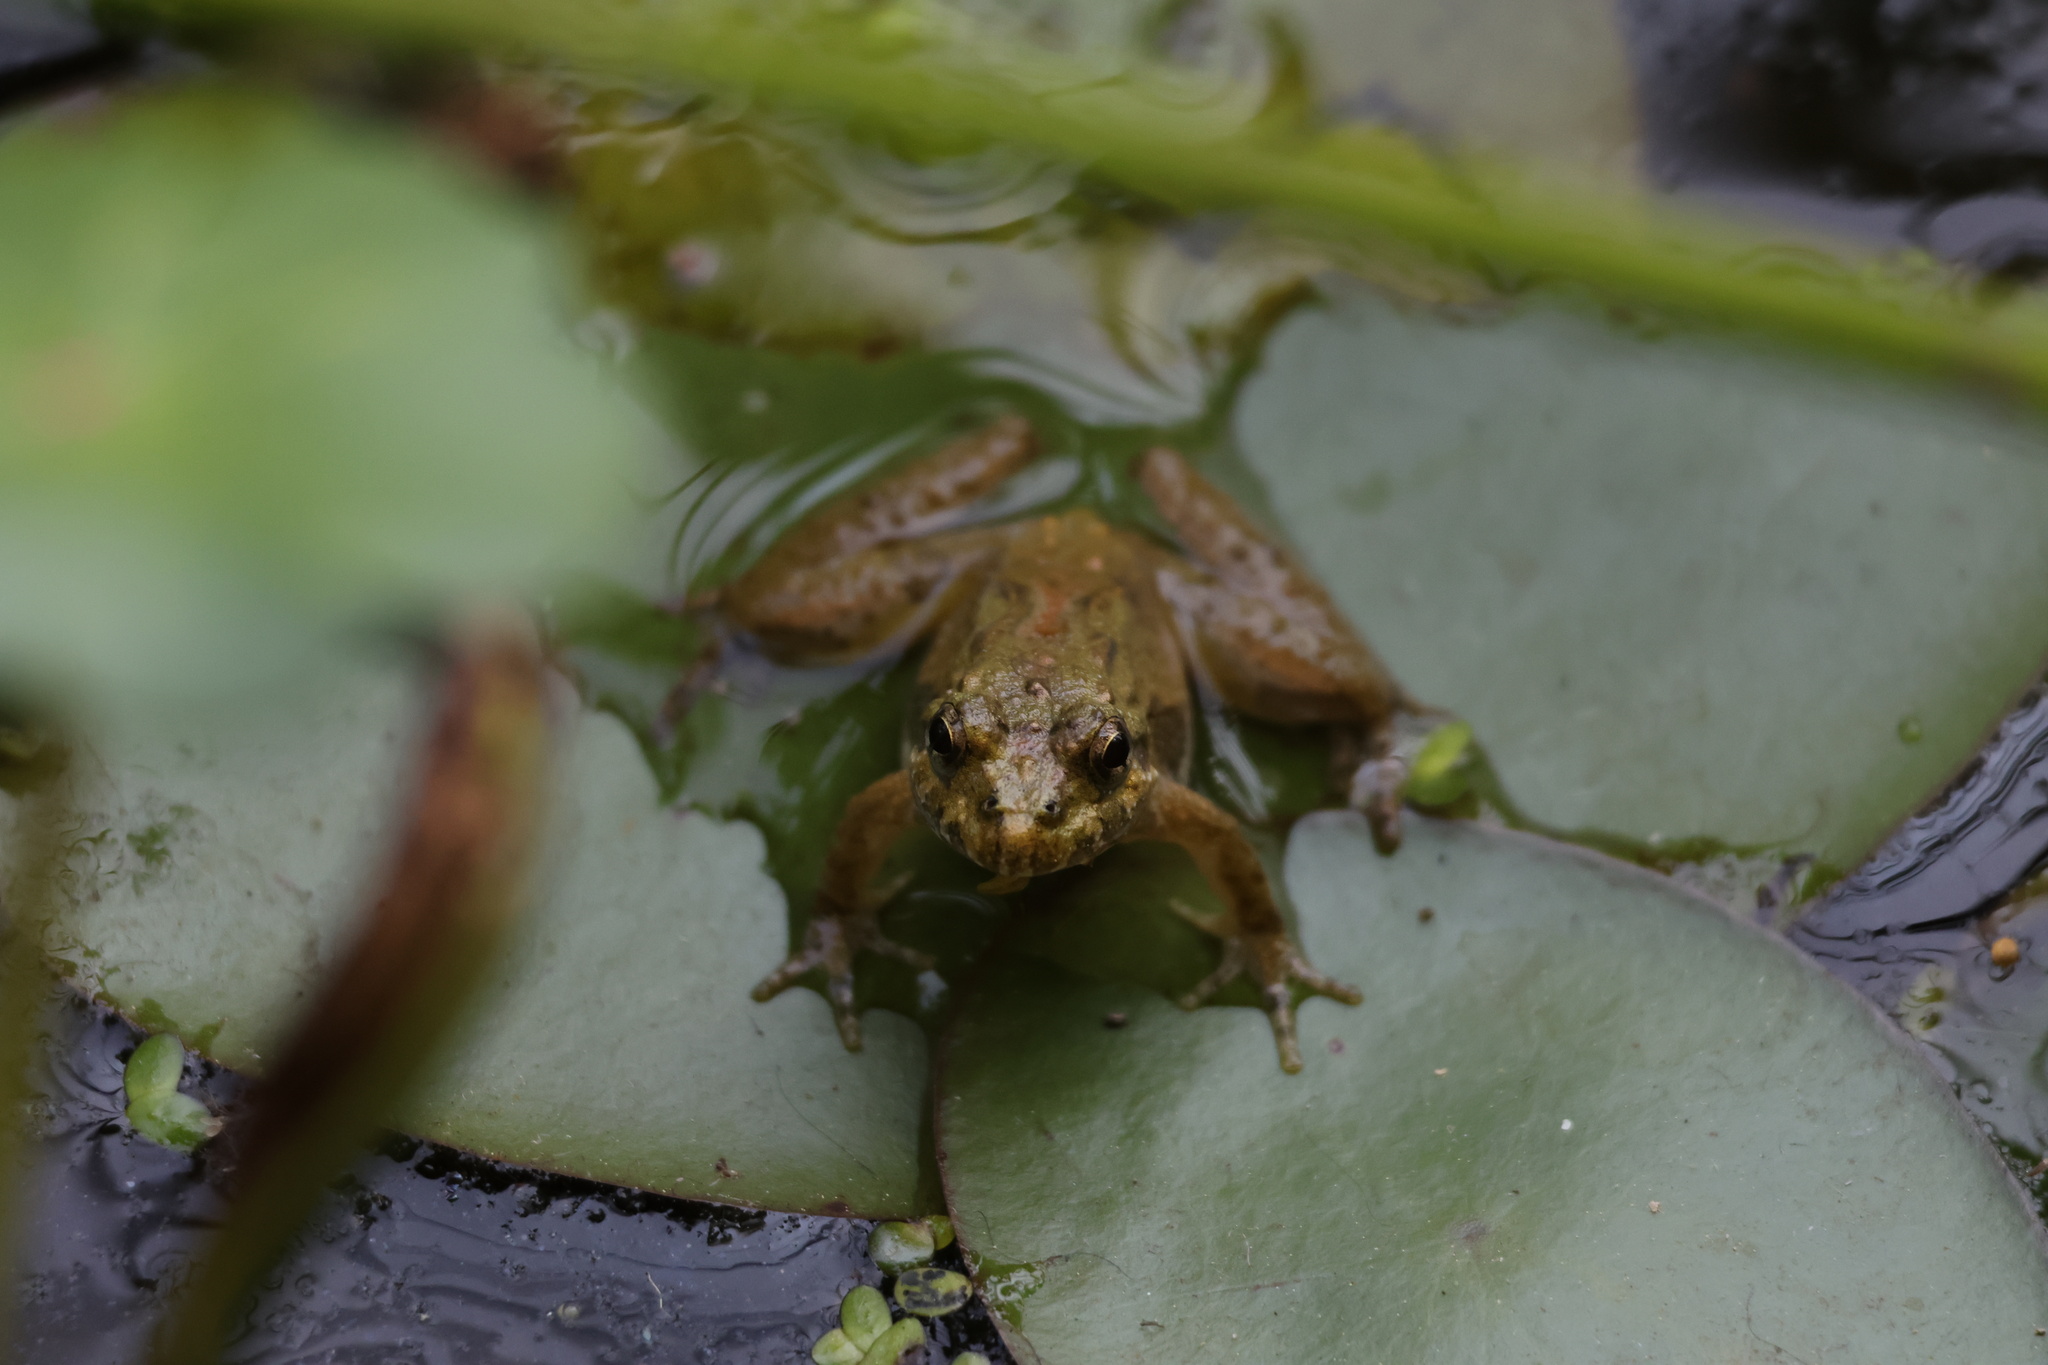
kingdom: Animalia
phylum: Chordata
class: Amphibia
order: Anura
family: Hylidae
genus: Acris
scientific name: Acris crepitans
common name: Northern cricket frog
